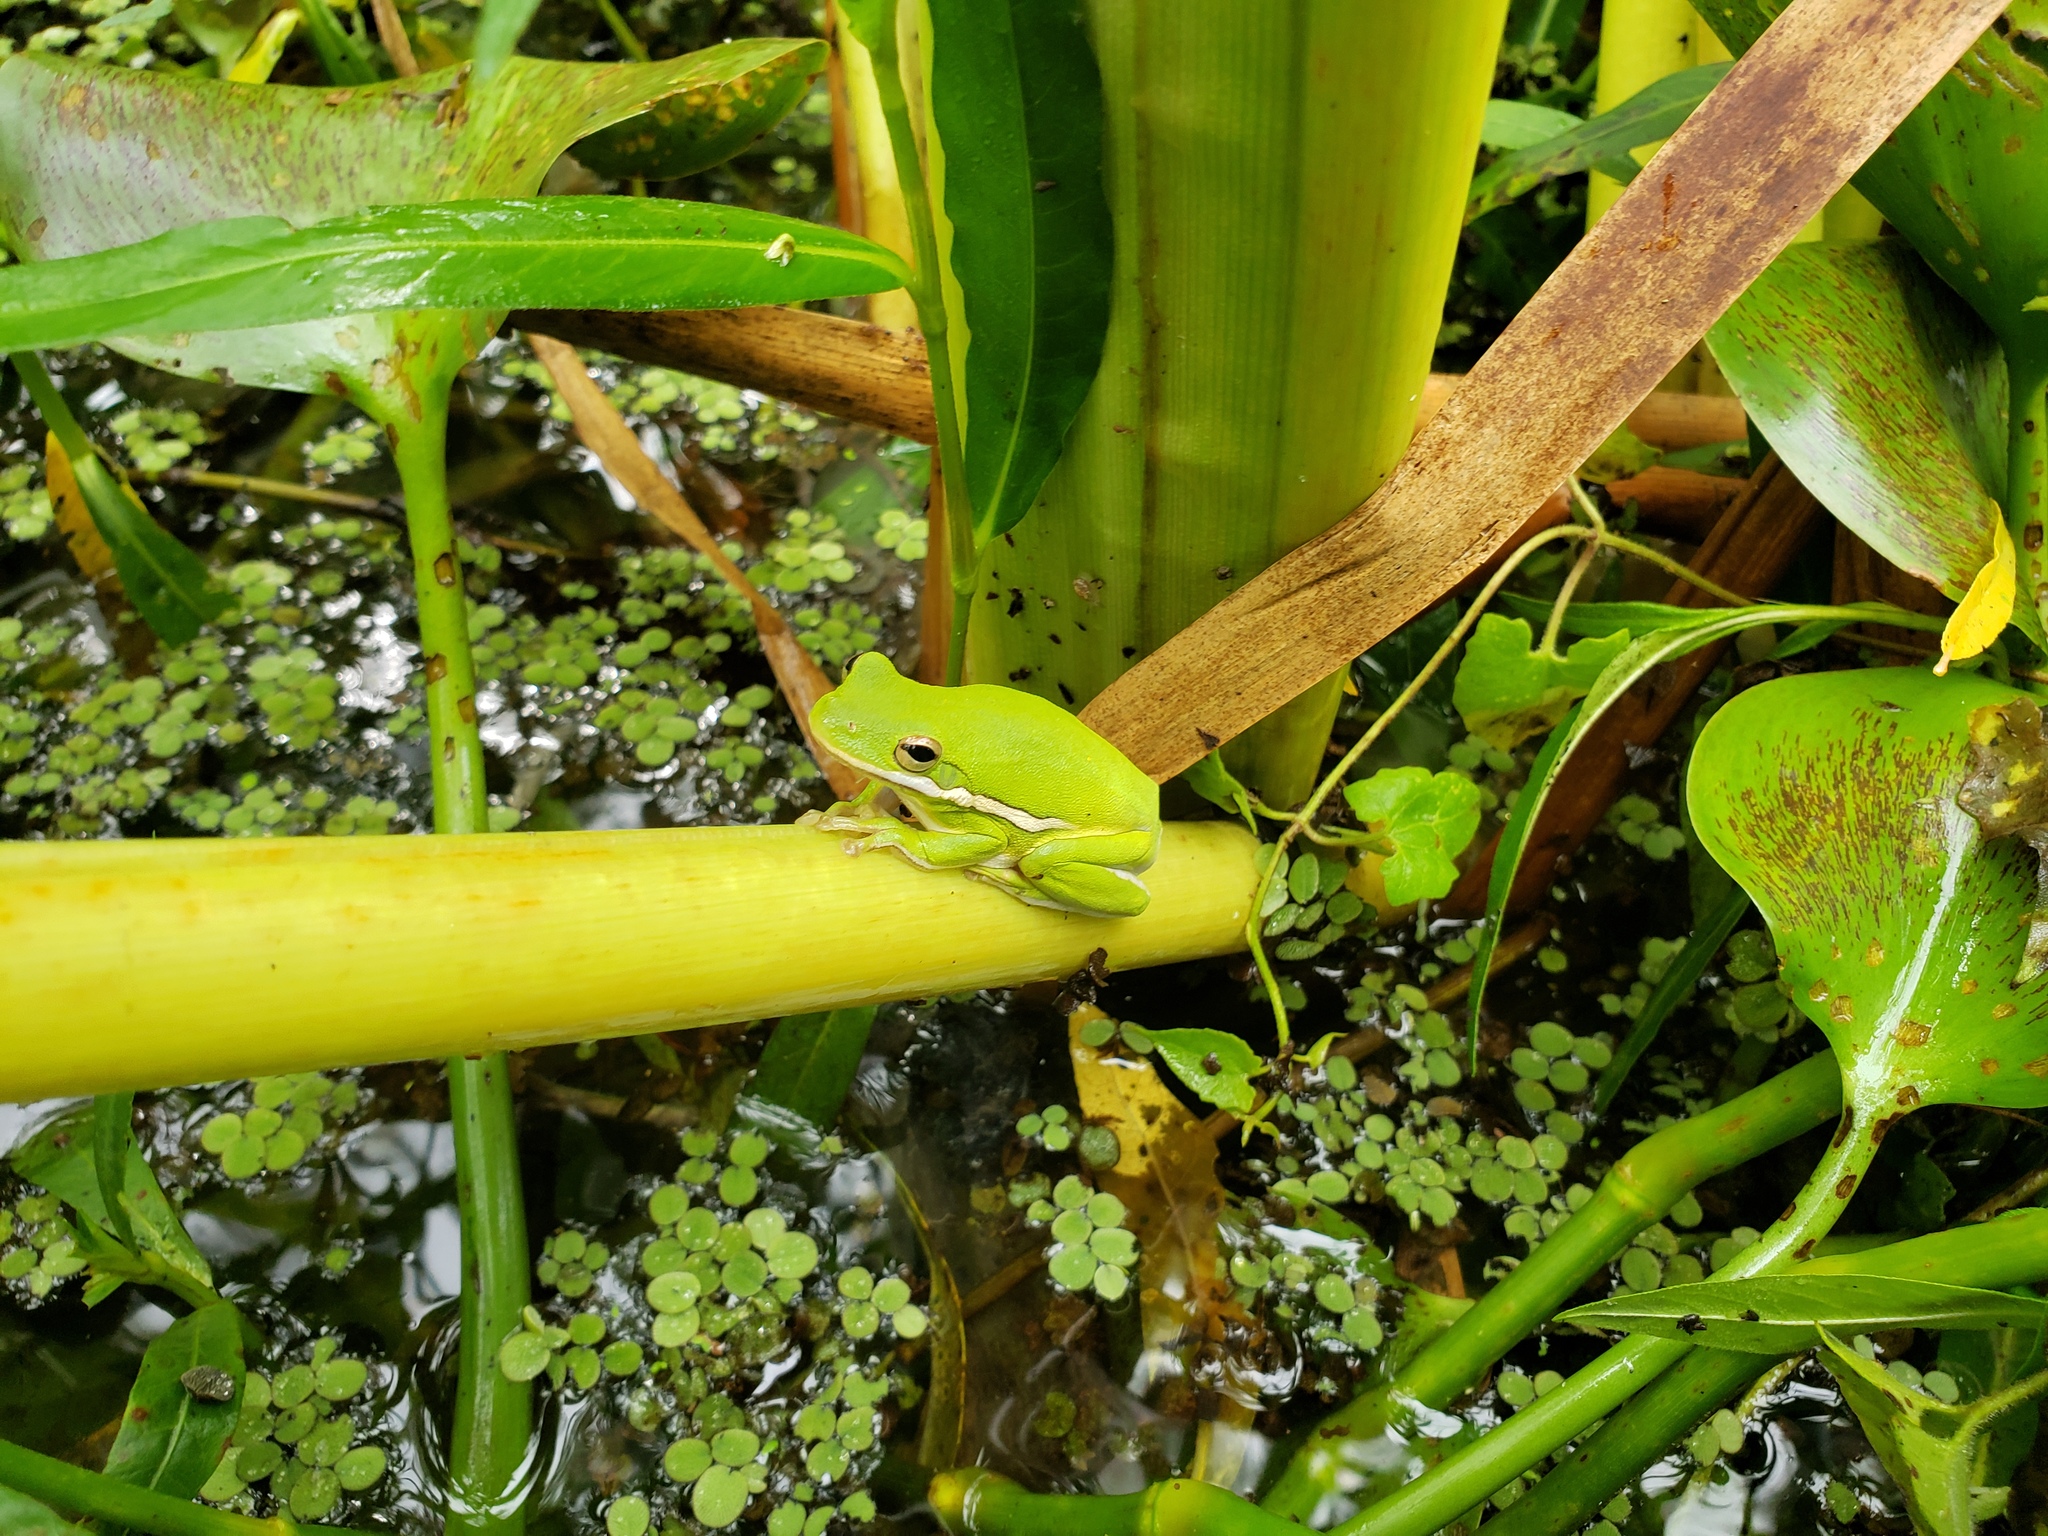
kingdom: Animalia
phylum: Chordata
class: Amphibia
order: Anura
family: Hylidae
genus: Dryophytes
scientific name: Dryophytes cinereus
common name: Green treefrog
